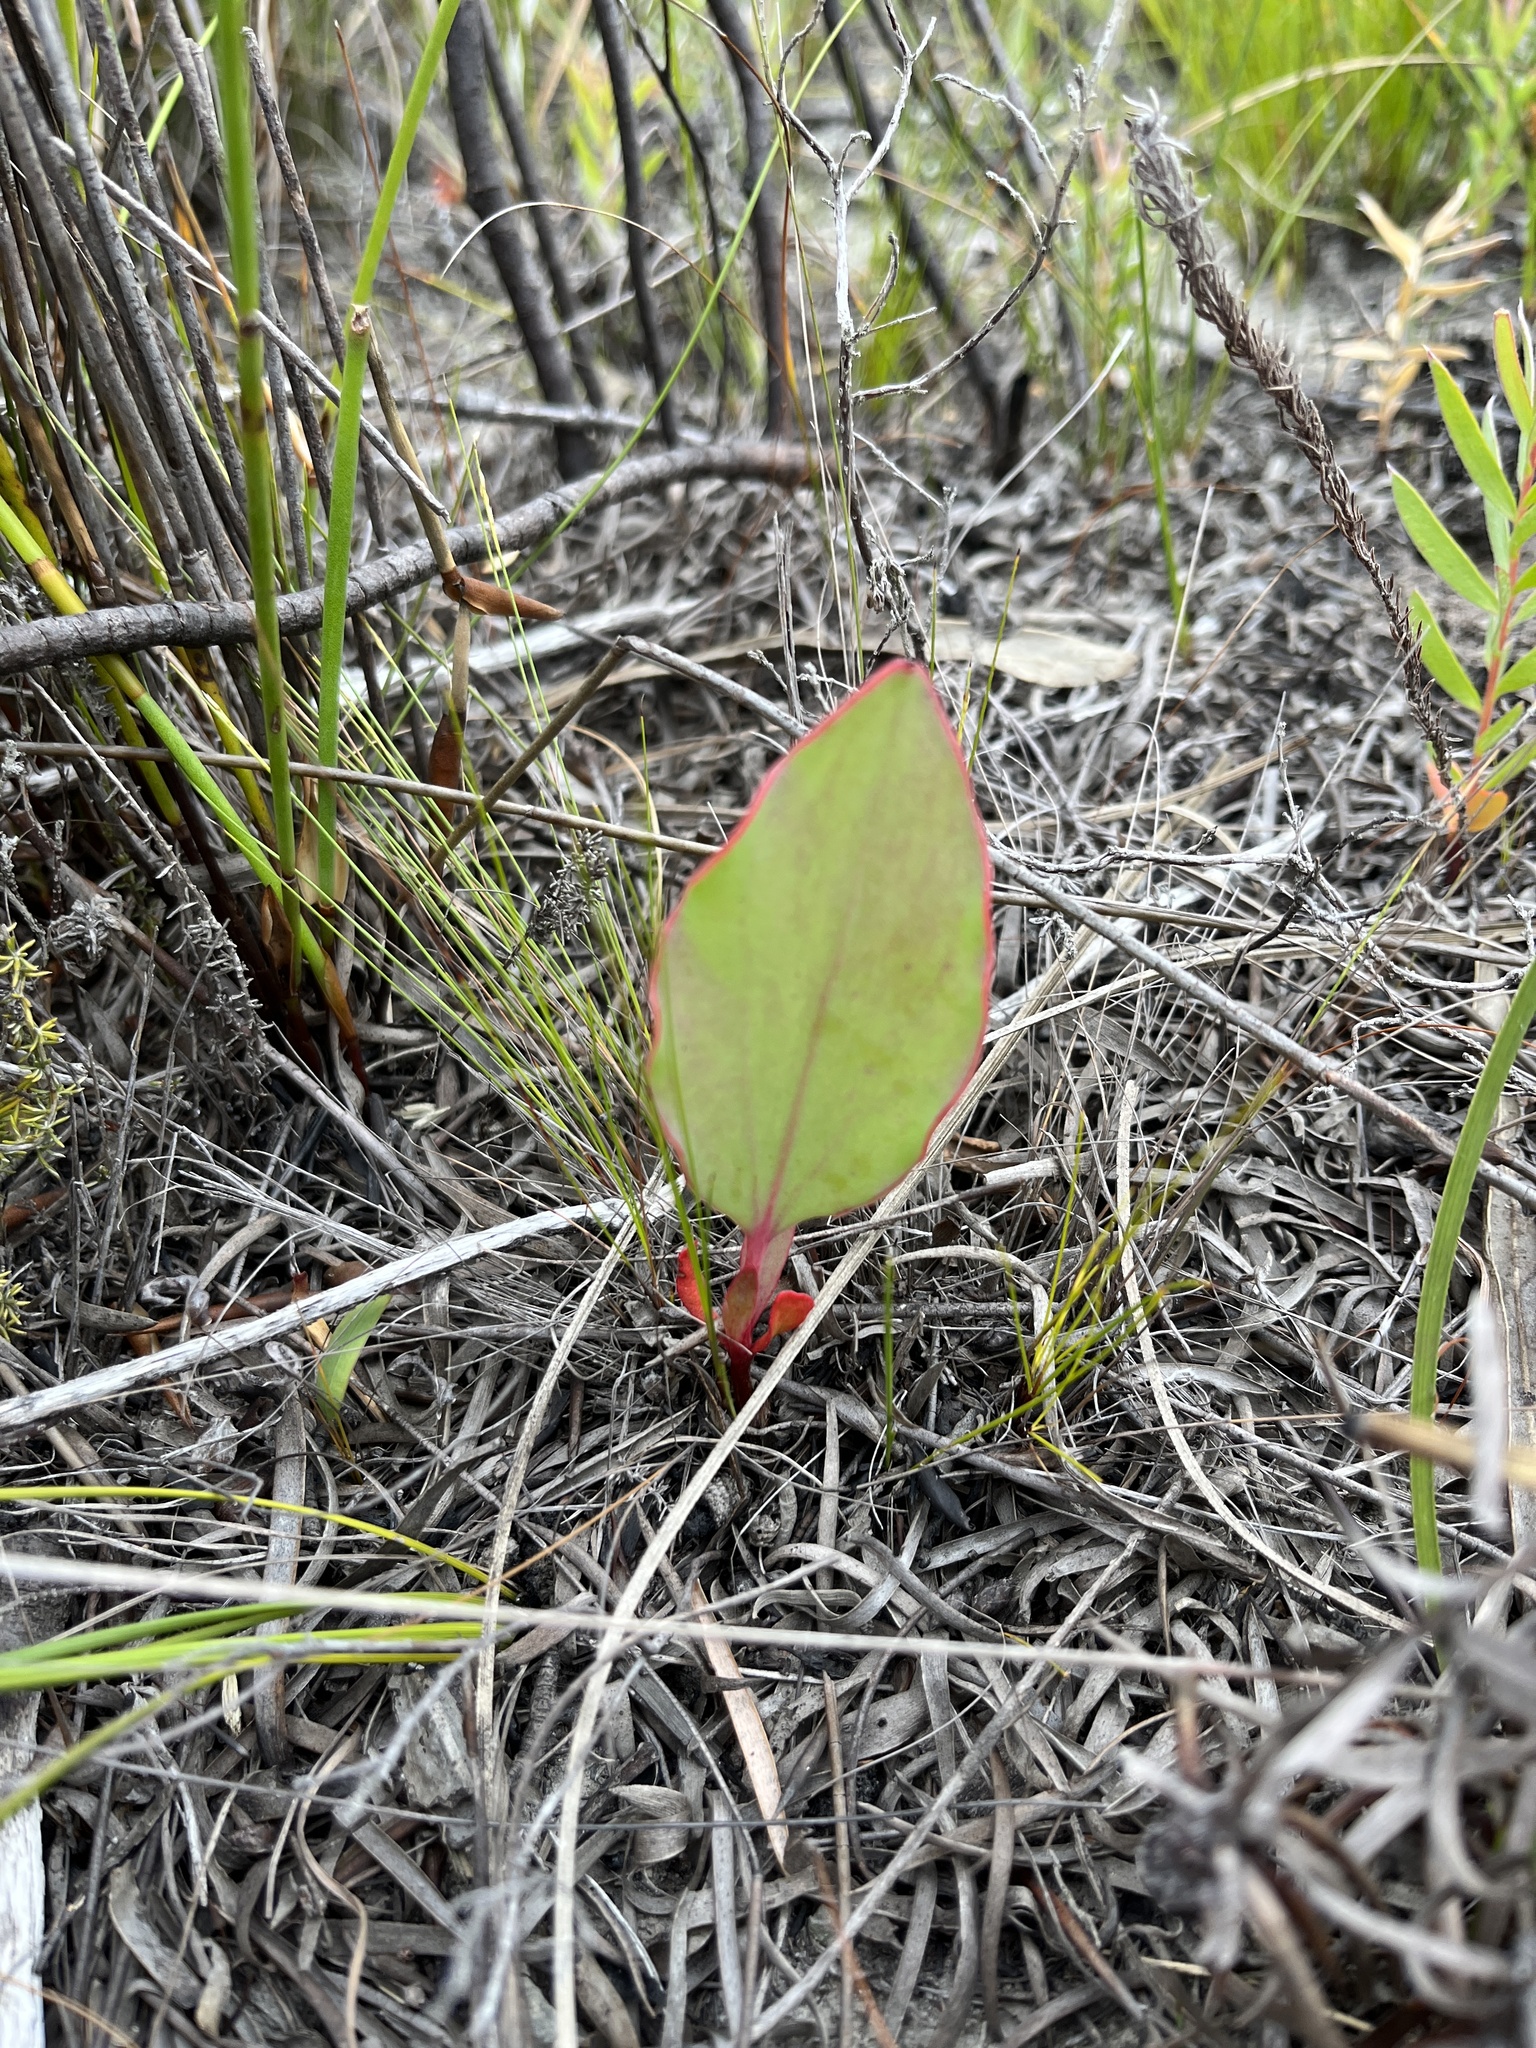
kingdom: Plantae
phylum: Tracheophyta
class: Magnoliopsida
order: Proteales
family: Proteaceae
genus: Protea
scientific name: Protea cordata
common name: Heart-leaf sugarbush
